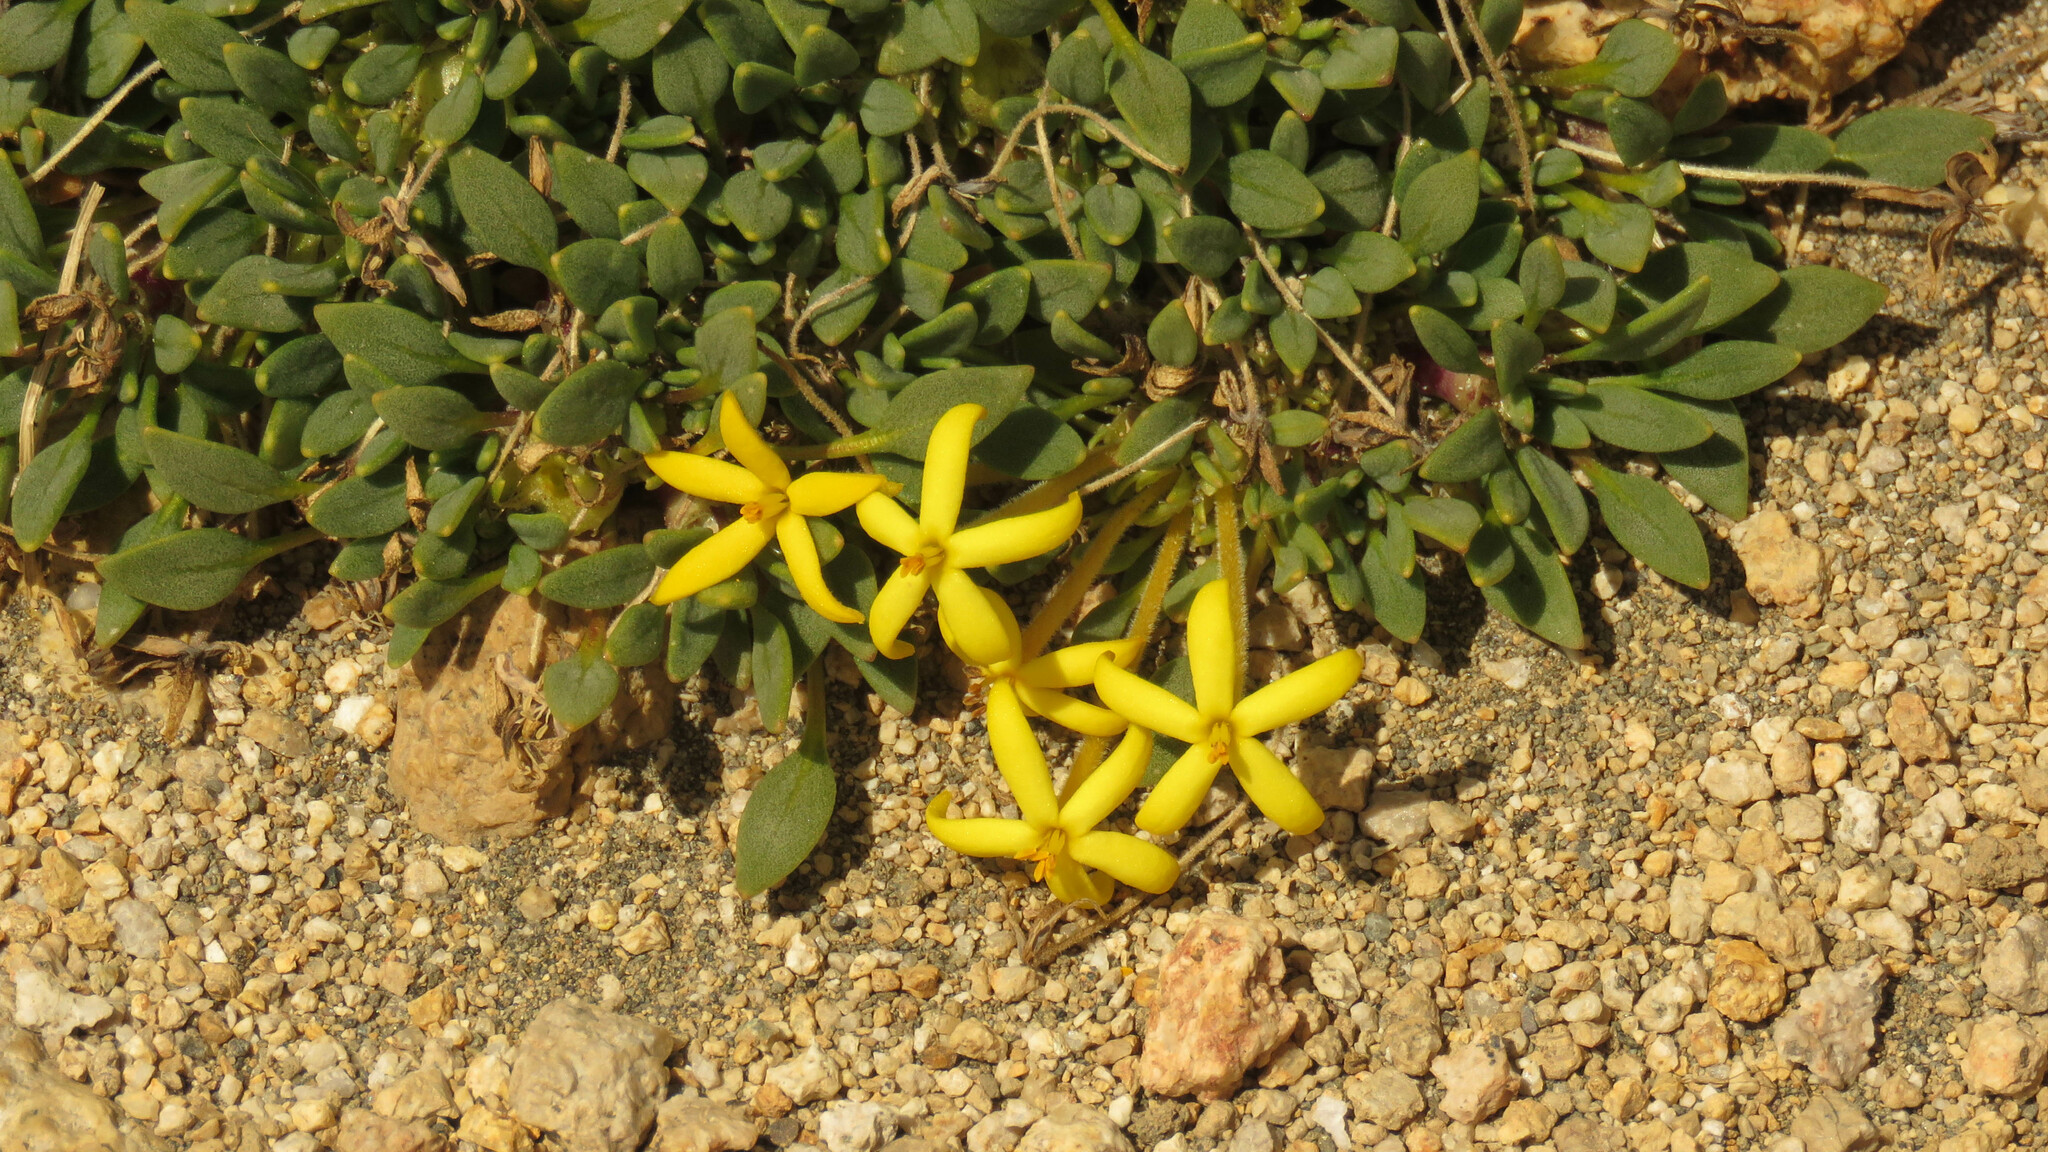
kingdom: Plantae
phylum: Tracheophyta
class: Magnoliopsida
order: Gentianales
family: Rubiaceae
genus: Oreopolus
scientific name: Oreopolus glacialis
